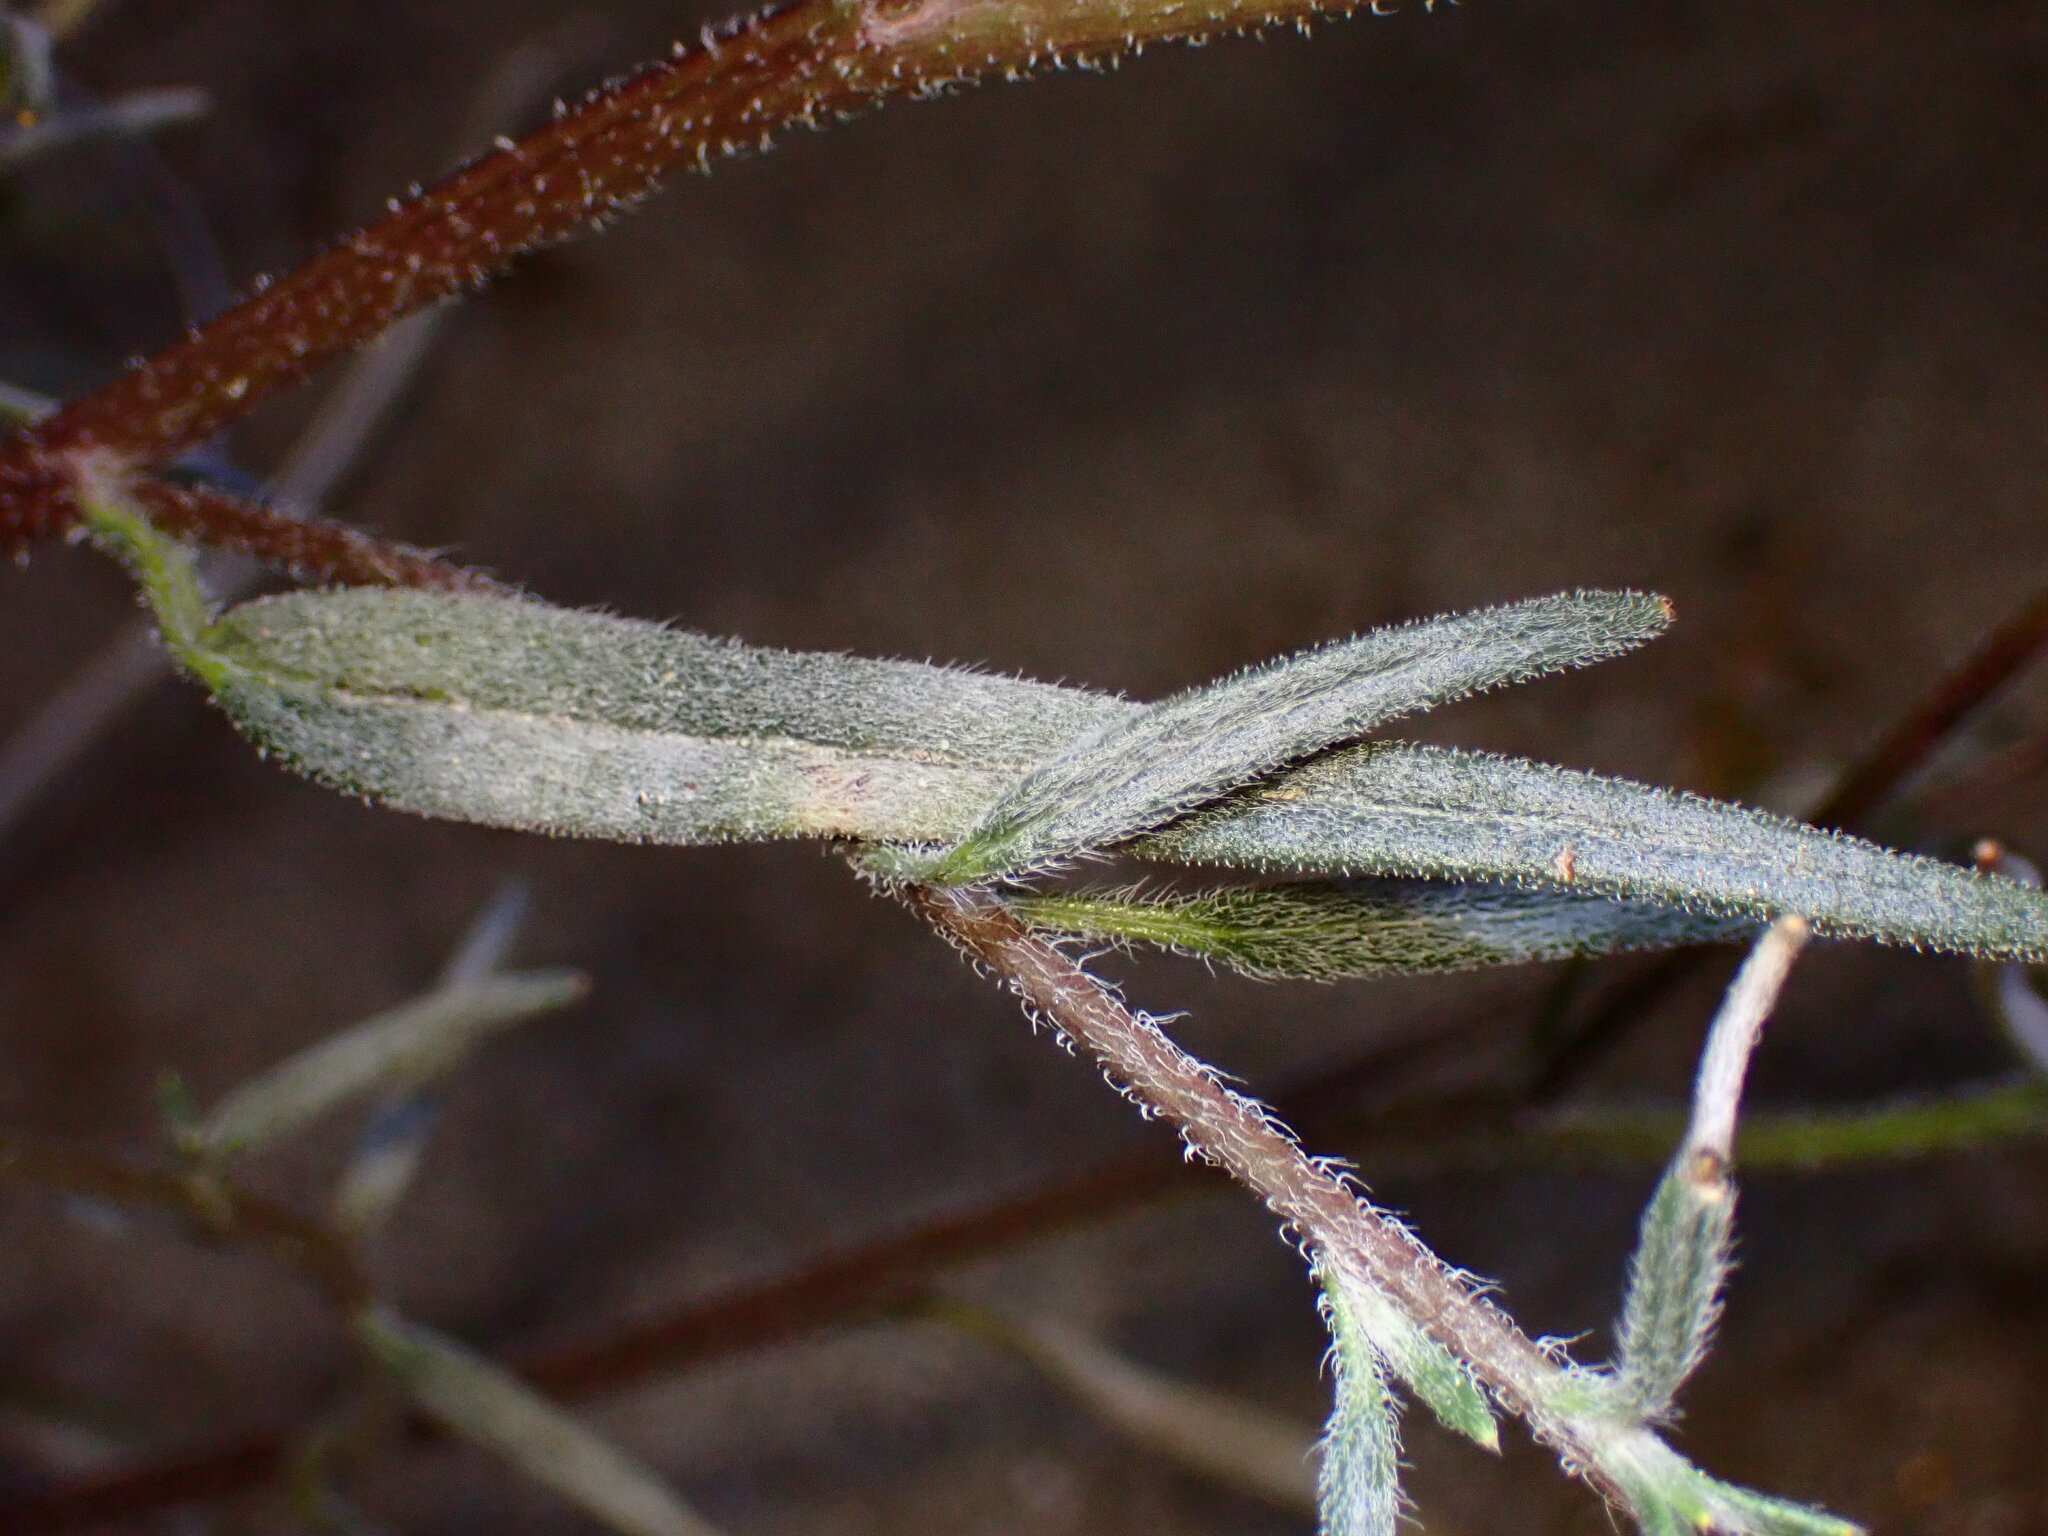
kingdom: Plantae
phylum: Tracheophyta
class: Magnoliopsida
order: Asterales
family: Asteraceae
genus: Palafoxia
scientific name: Palafoxia arida
